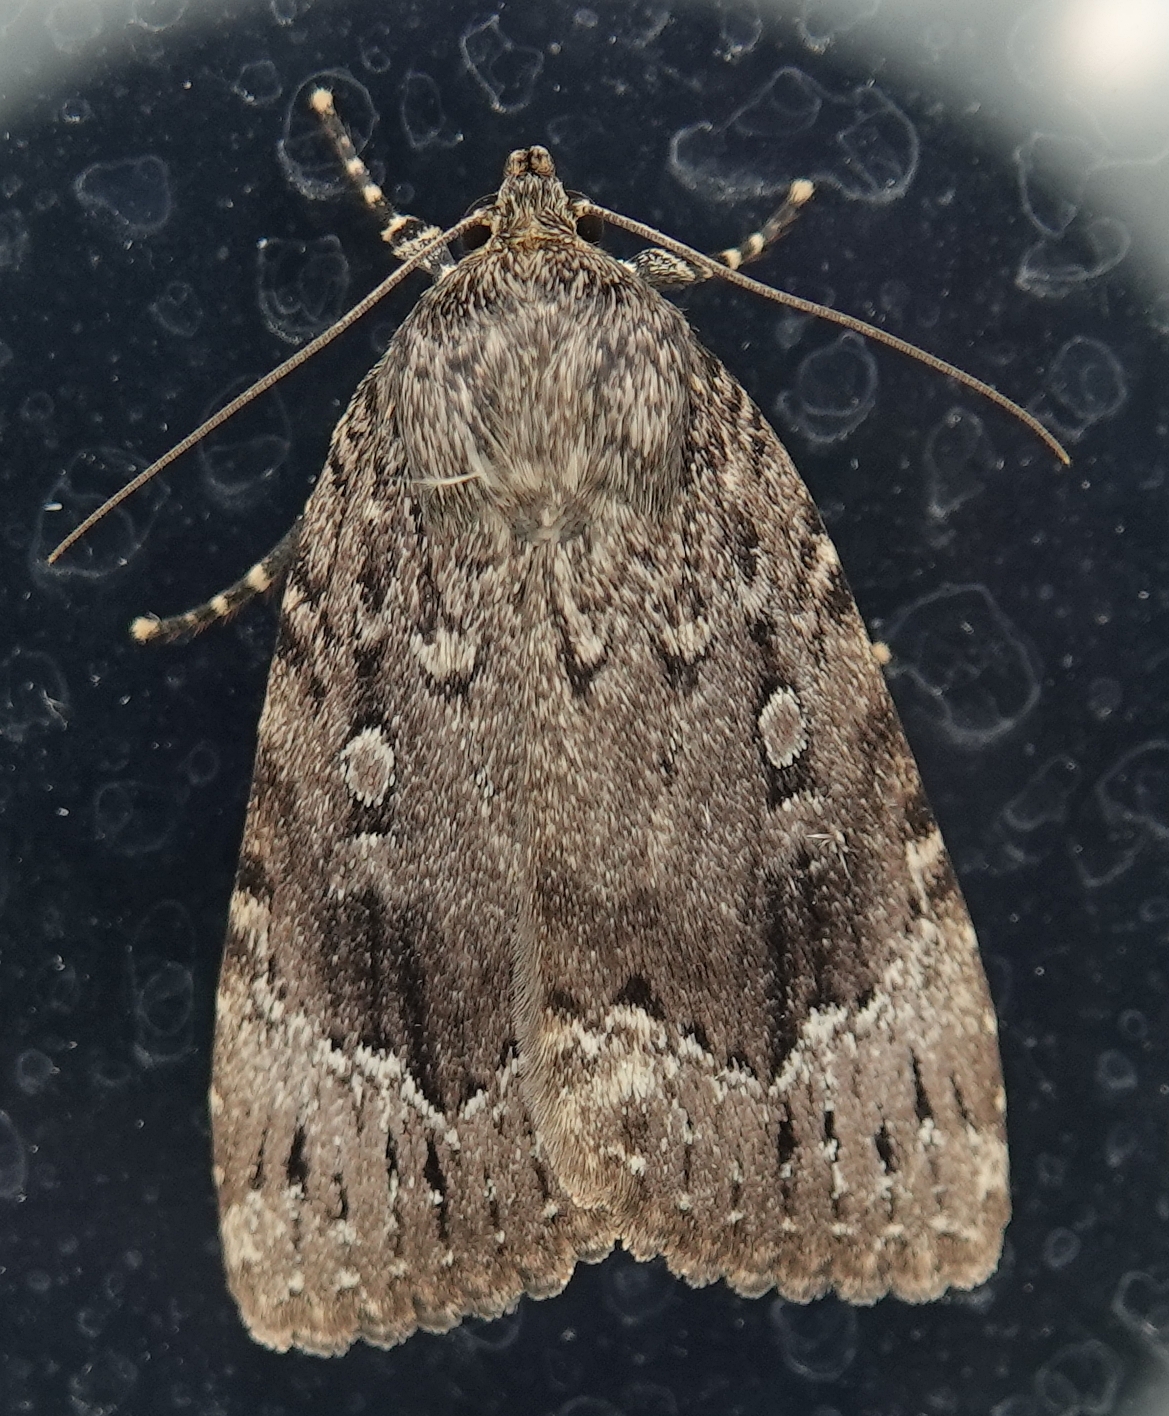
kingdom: Animalia
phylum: Arthropoda
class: Insecta
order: Lepidoptera
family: Noctuidae
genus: Amphipyra
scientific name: Amphipyra pyramidoides
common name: American copper underwing
